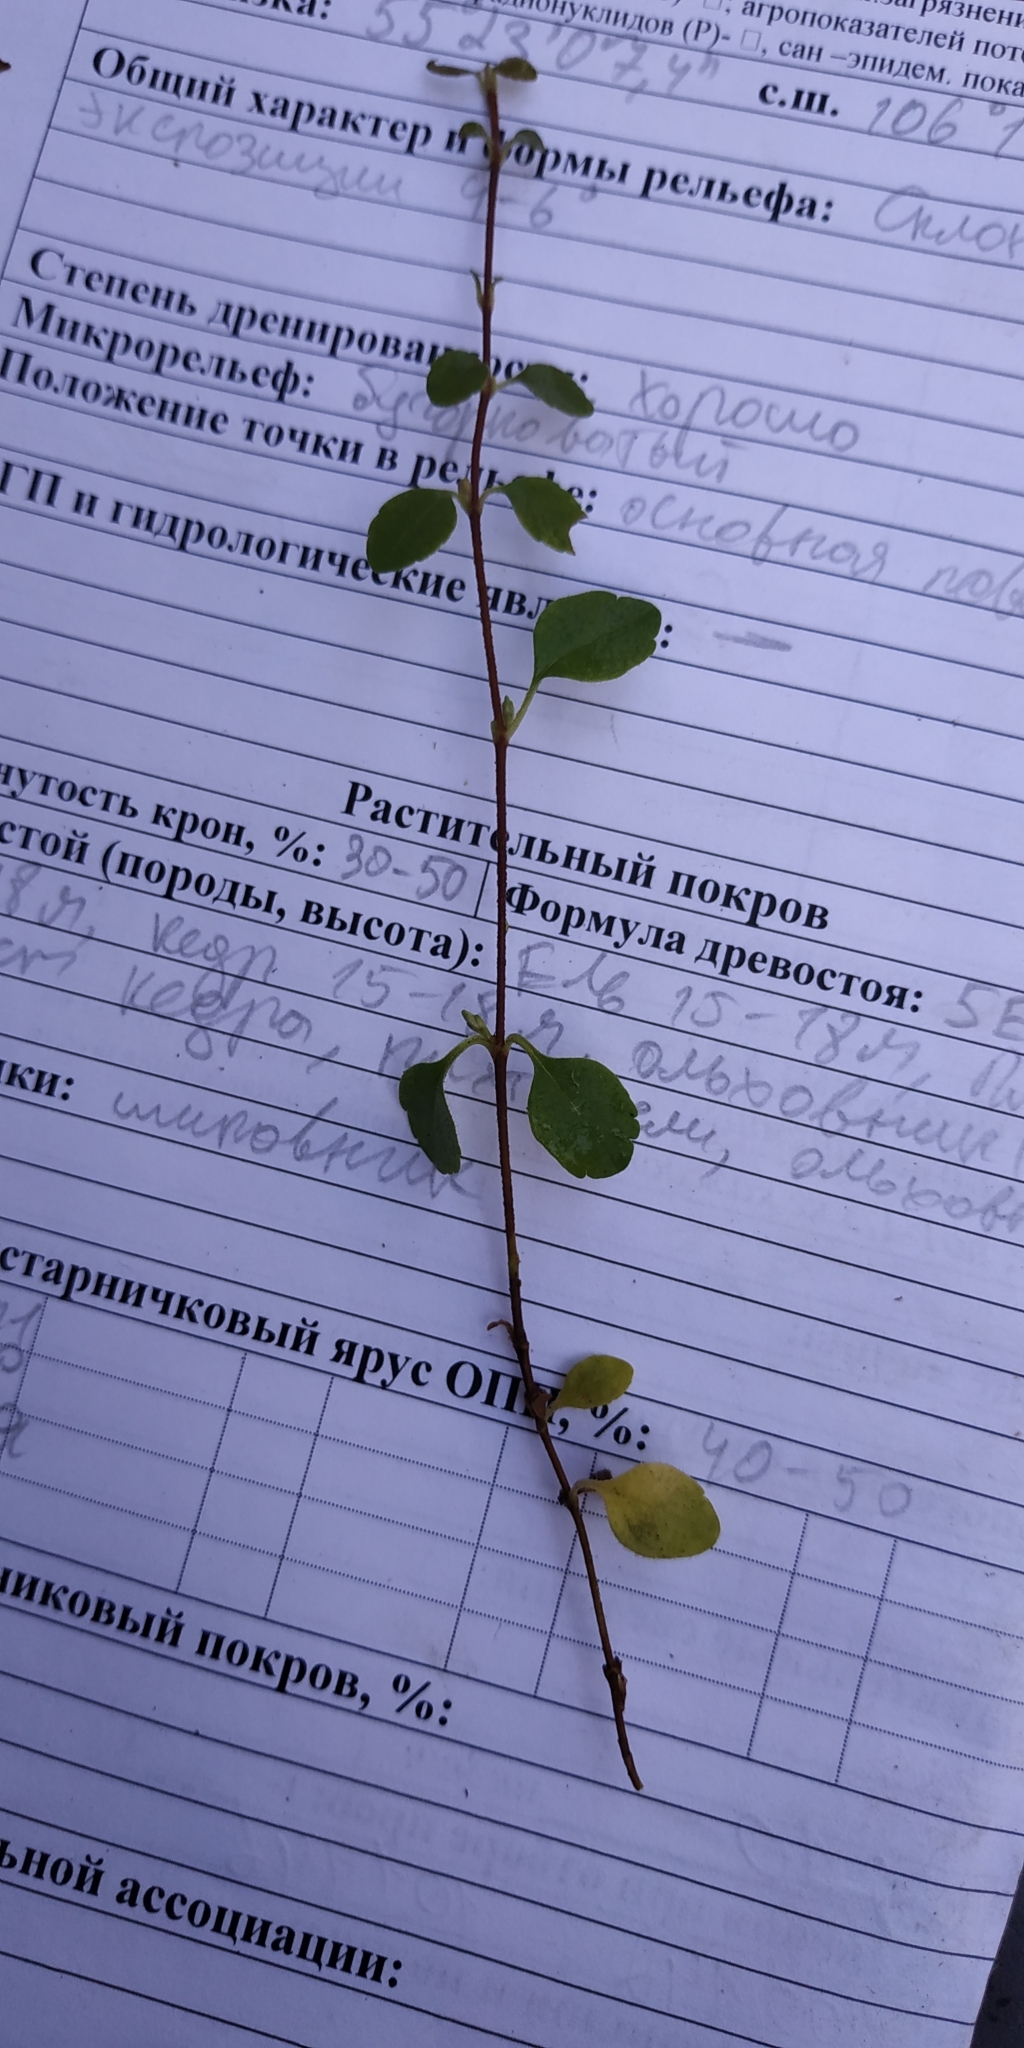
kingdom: Plantae
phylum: Tracheophyta
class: Magnoliopsida
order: Dipsacales
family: Caprifoliaceae
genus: Linnaea
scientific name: Linnaea borealis
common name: Twinflower
